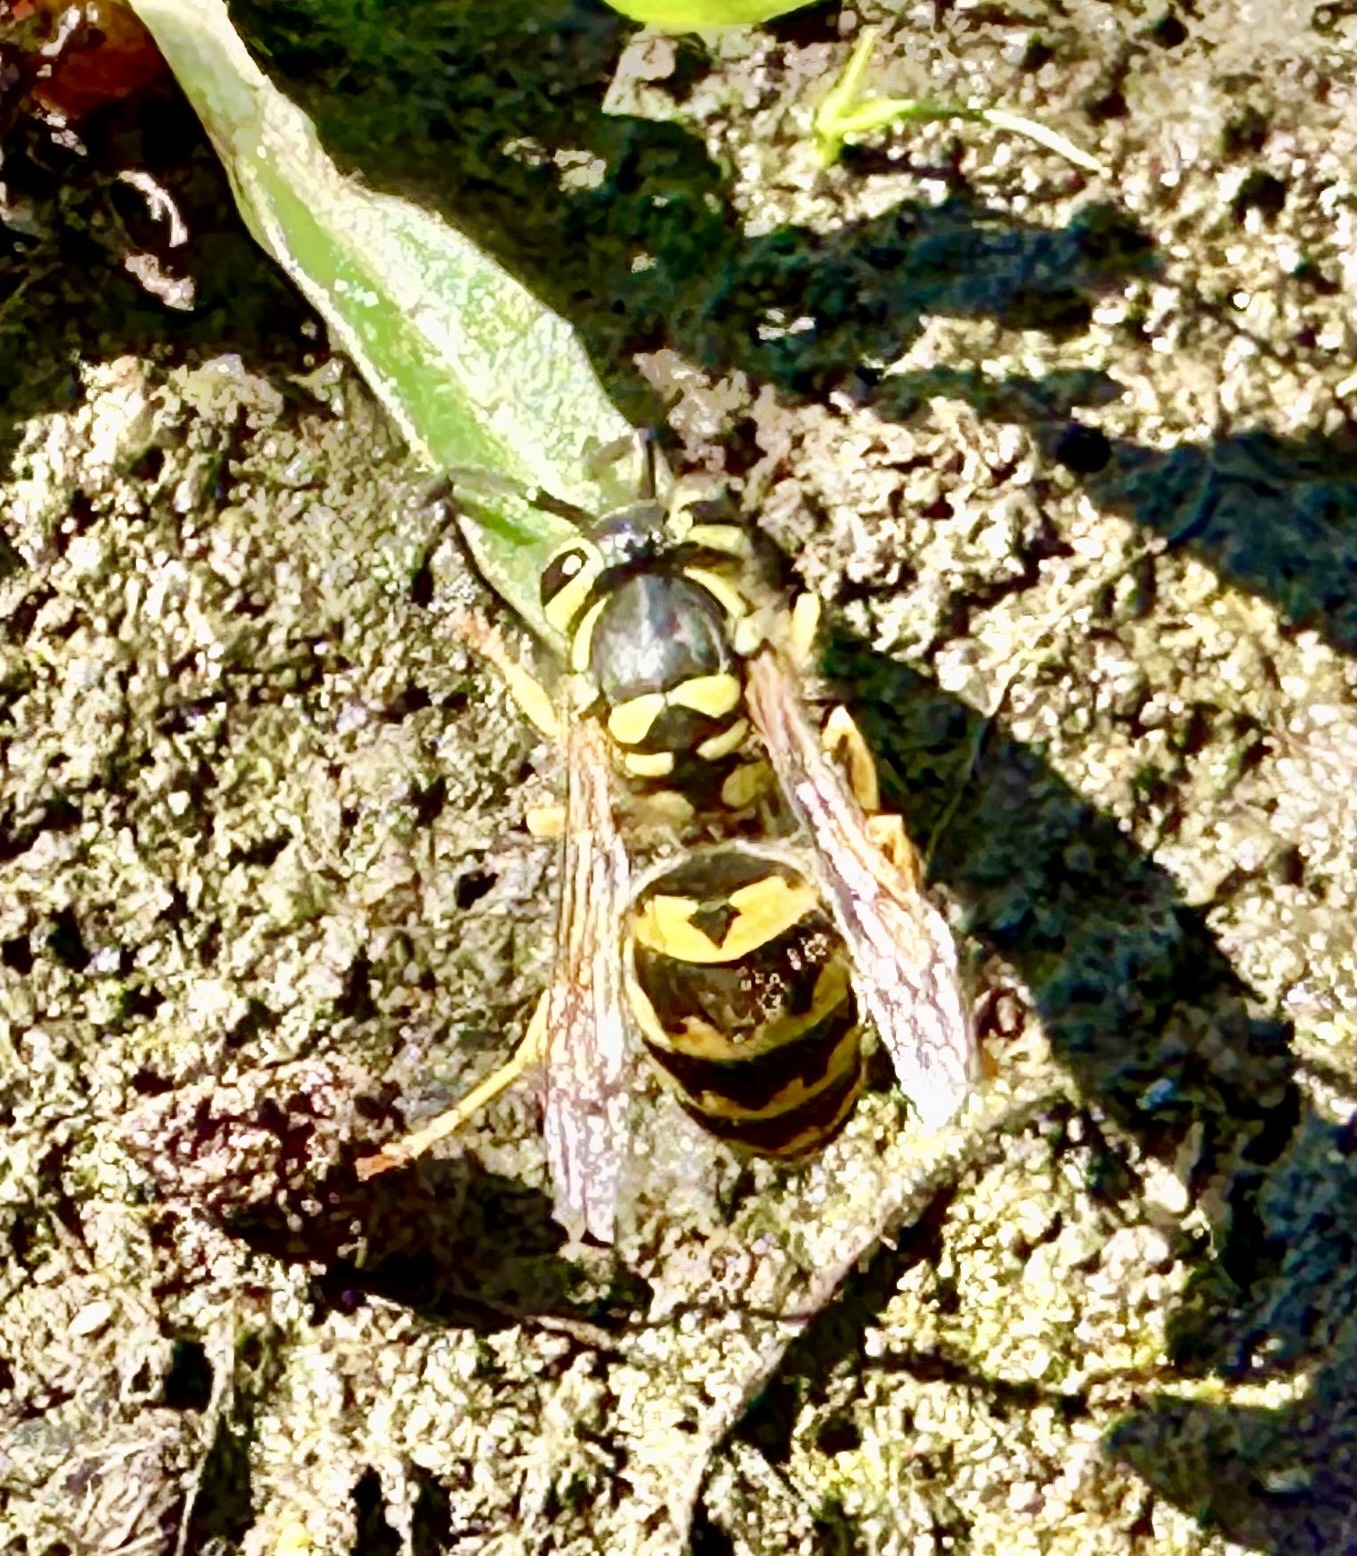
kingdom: Animalia
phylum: Arthropoda
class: Insecta
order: Hymenoptera
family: Vespidae
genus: Vespula
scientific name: Vespula pensylvanica
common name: Western yellowjacket
